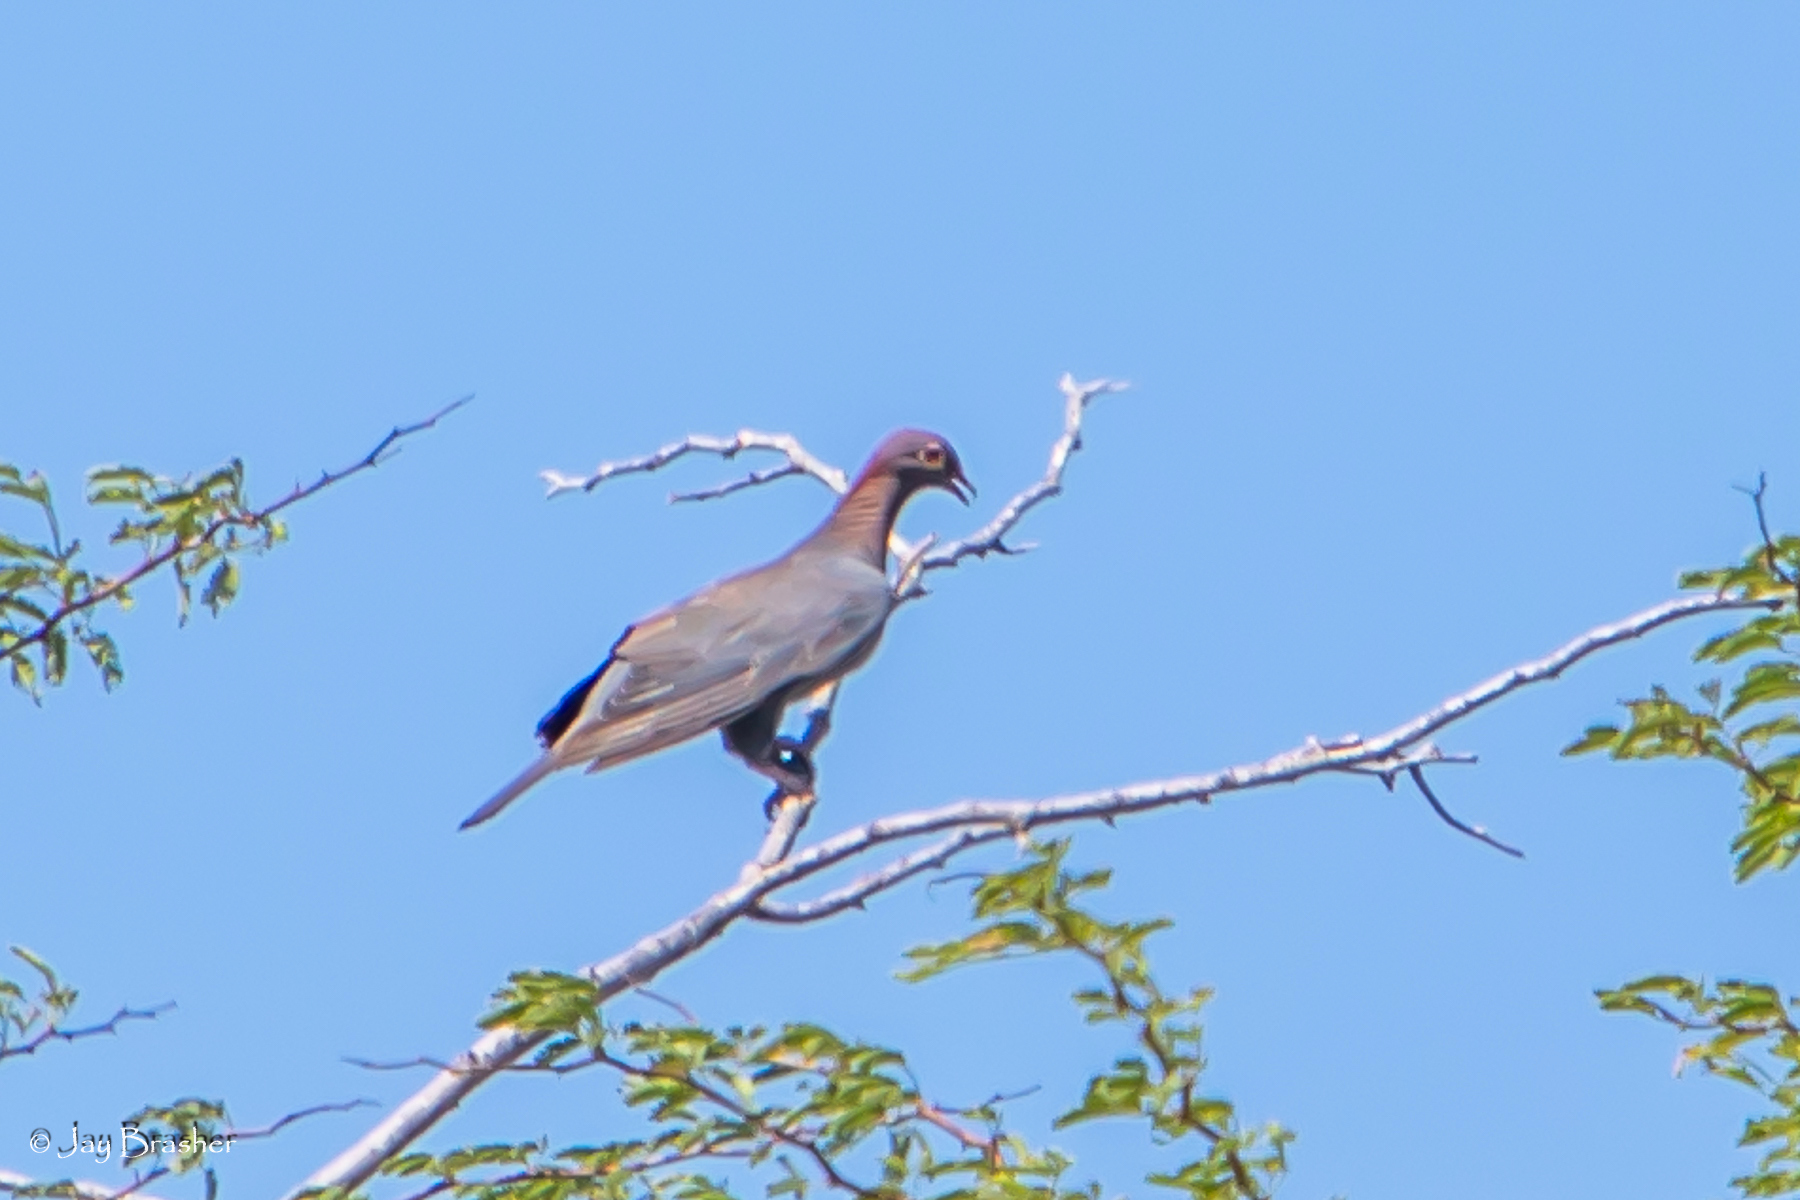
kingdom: Animalia
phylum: Chordata
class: Aves
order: Columbiformes
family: Columbidae
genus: Patagioenas
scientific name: Patagioenas squamosa
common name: Scaly-naped pigeon
